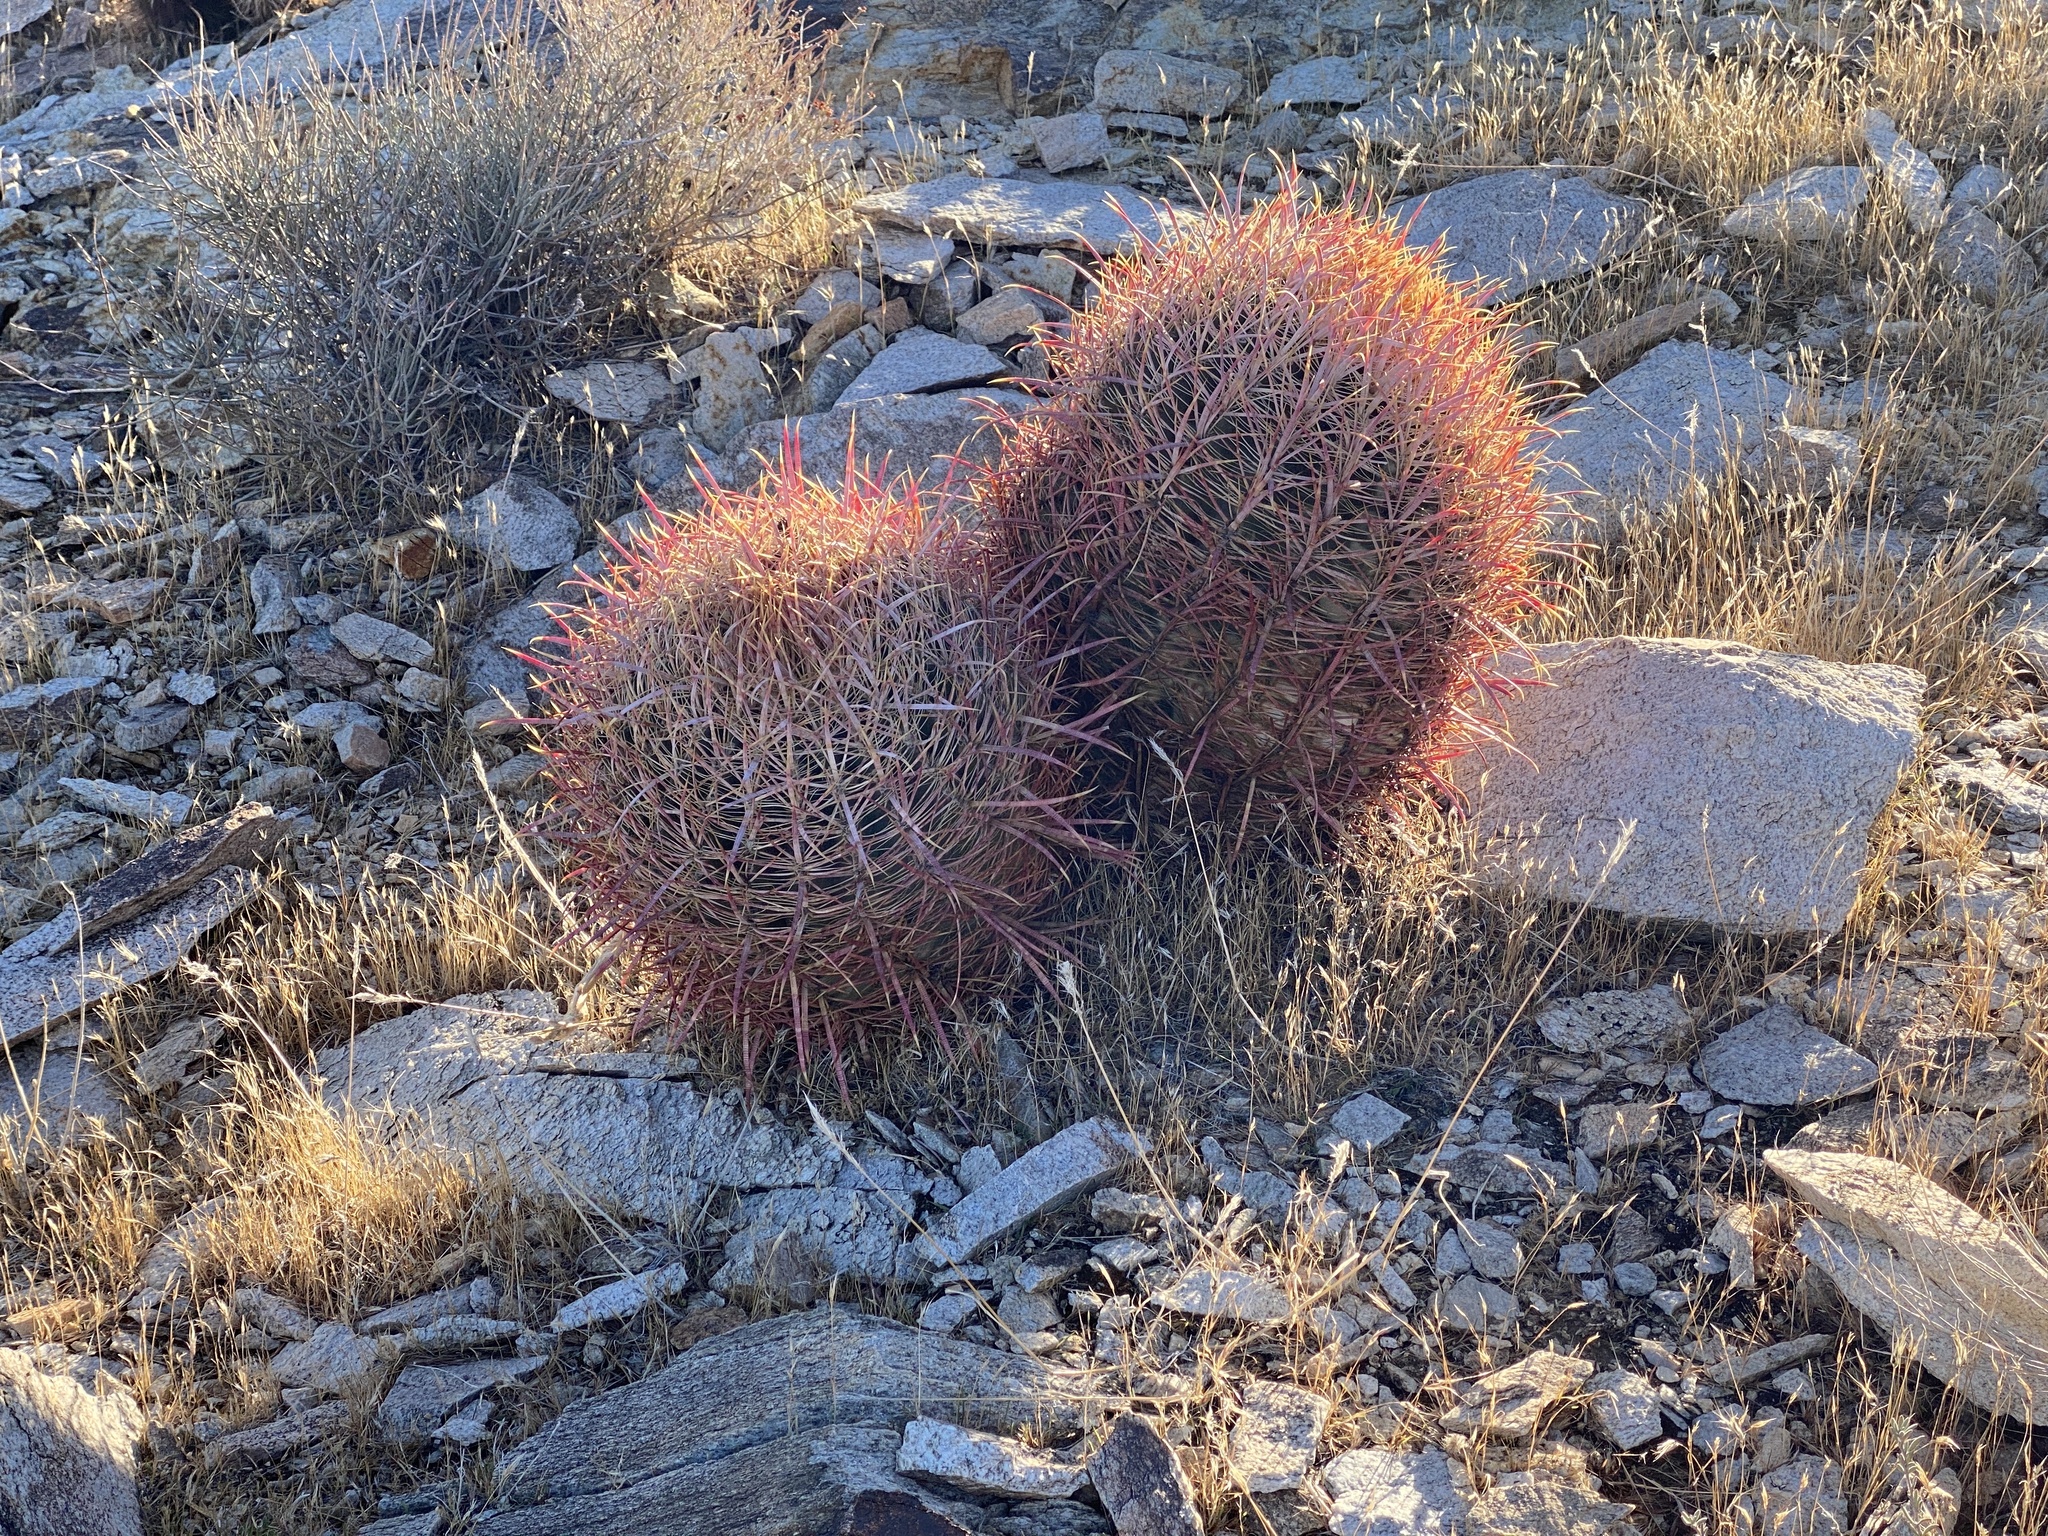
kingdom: Plantae
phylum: Tracheophyta
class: Magnoliopsida
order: Caryophyllales
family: Cactaceae
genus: Ferocactus
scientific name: Ferocactus cylindraceus
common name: California barrel cactus
